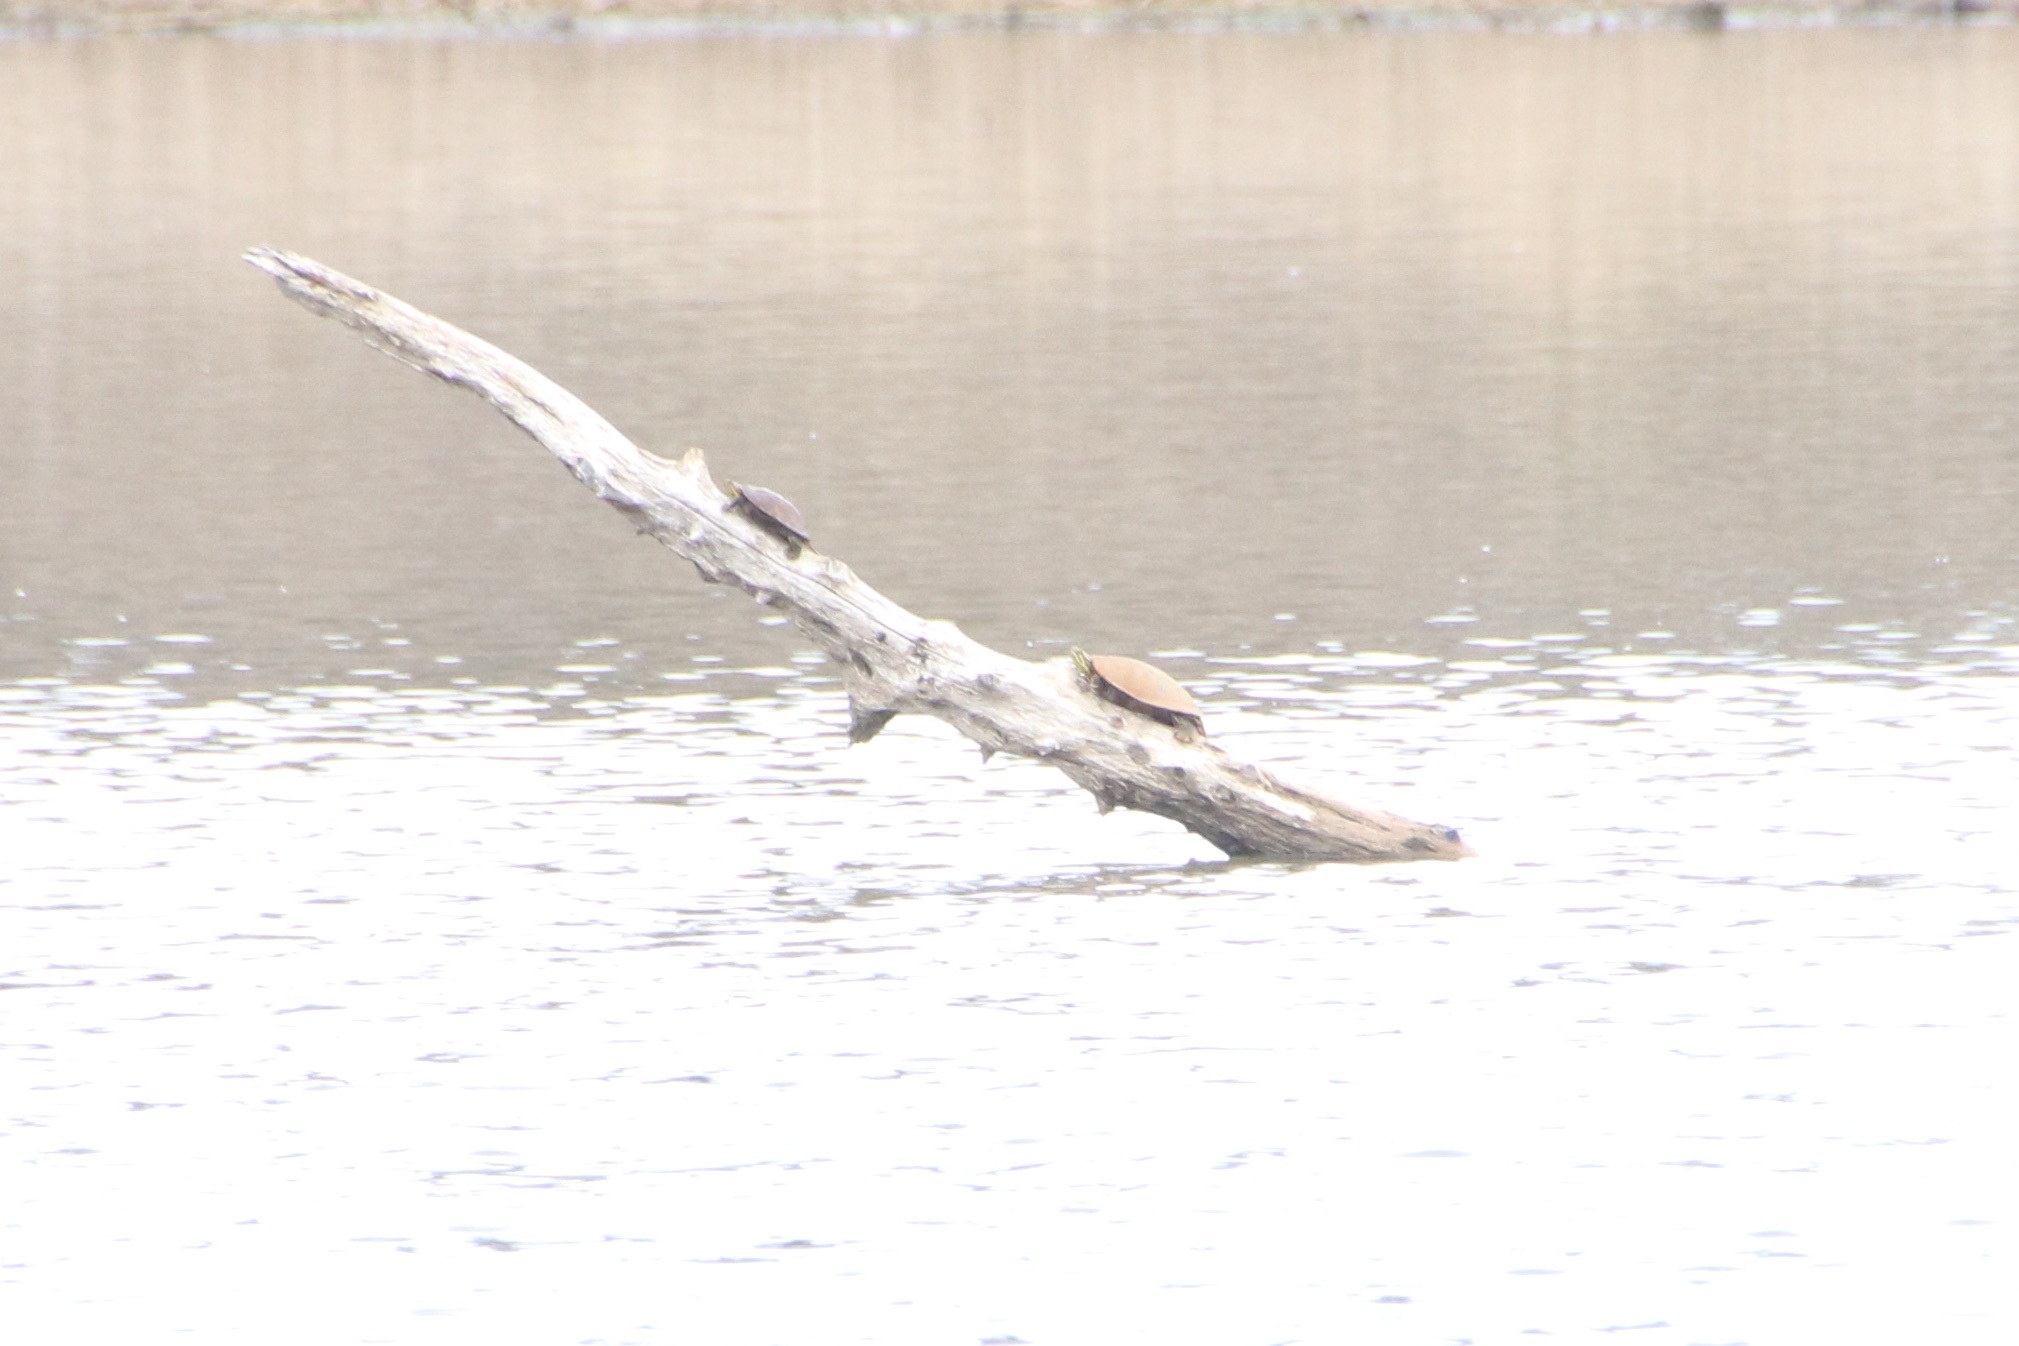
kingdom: Animalia
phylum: Chordata
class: Testudines
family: Emydidae
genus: Chrysemys
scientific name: Chrysemys picta
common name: Painted turtle
